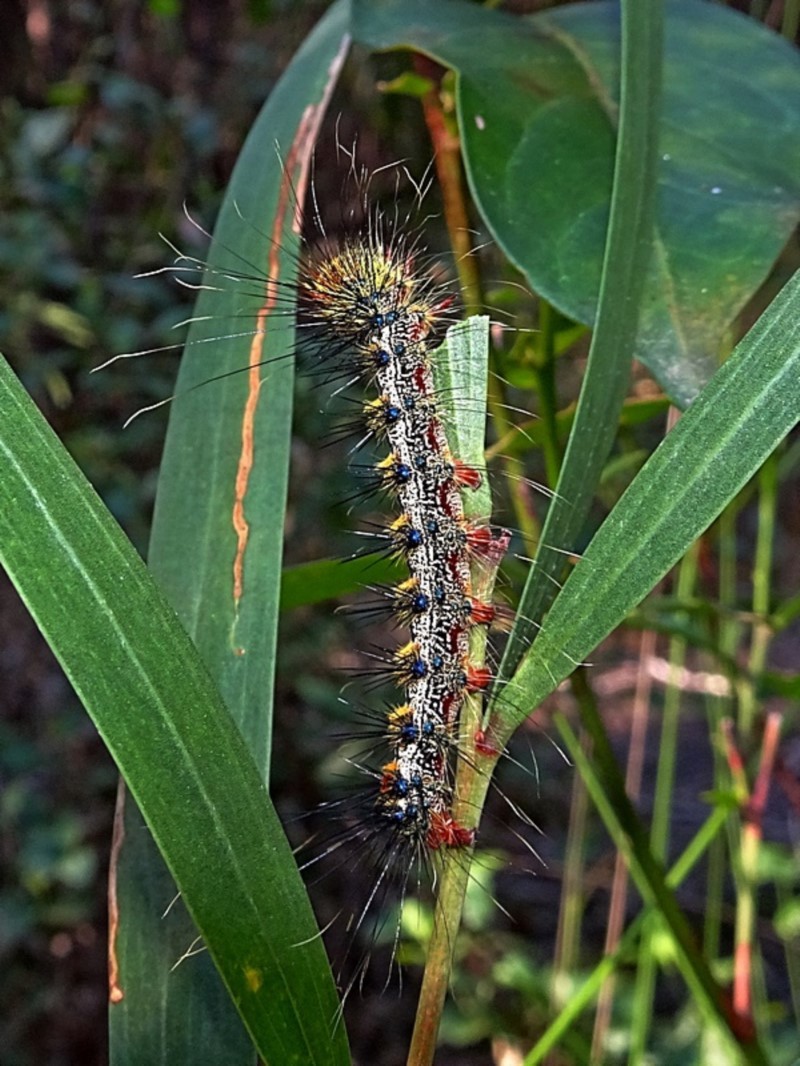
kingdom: Animalia
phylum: Arthropoda
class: Insecta
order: Lepidoptera
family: Notodontidae
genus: Aglaosoma
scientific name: Aglaosoma variegata
